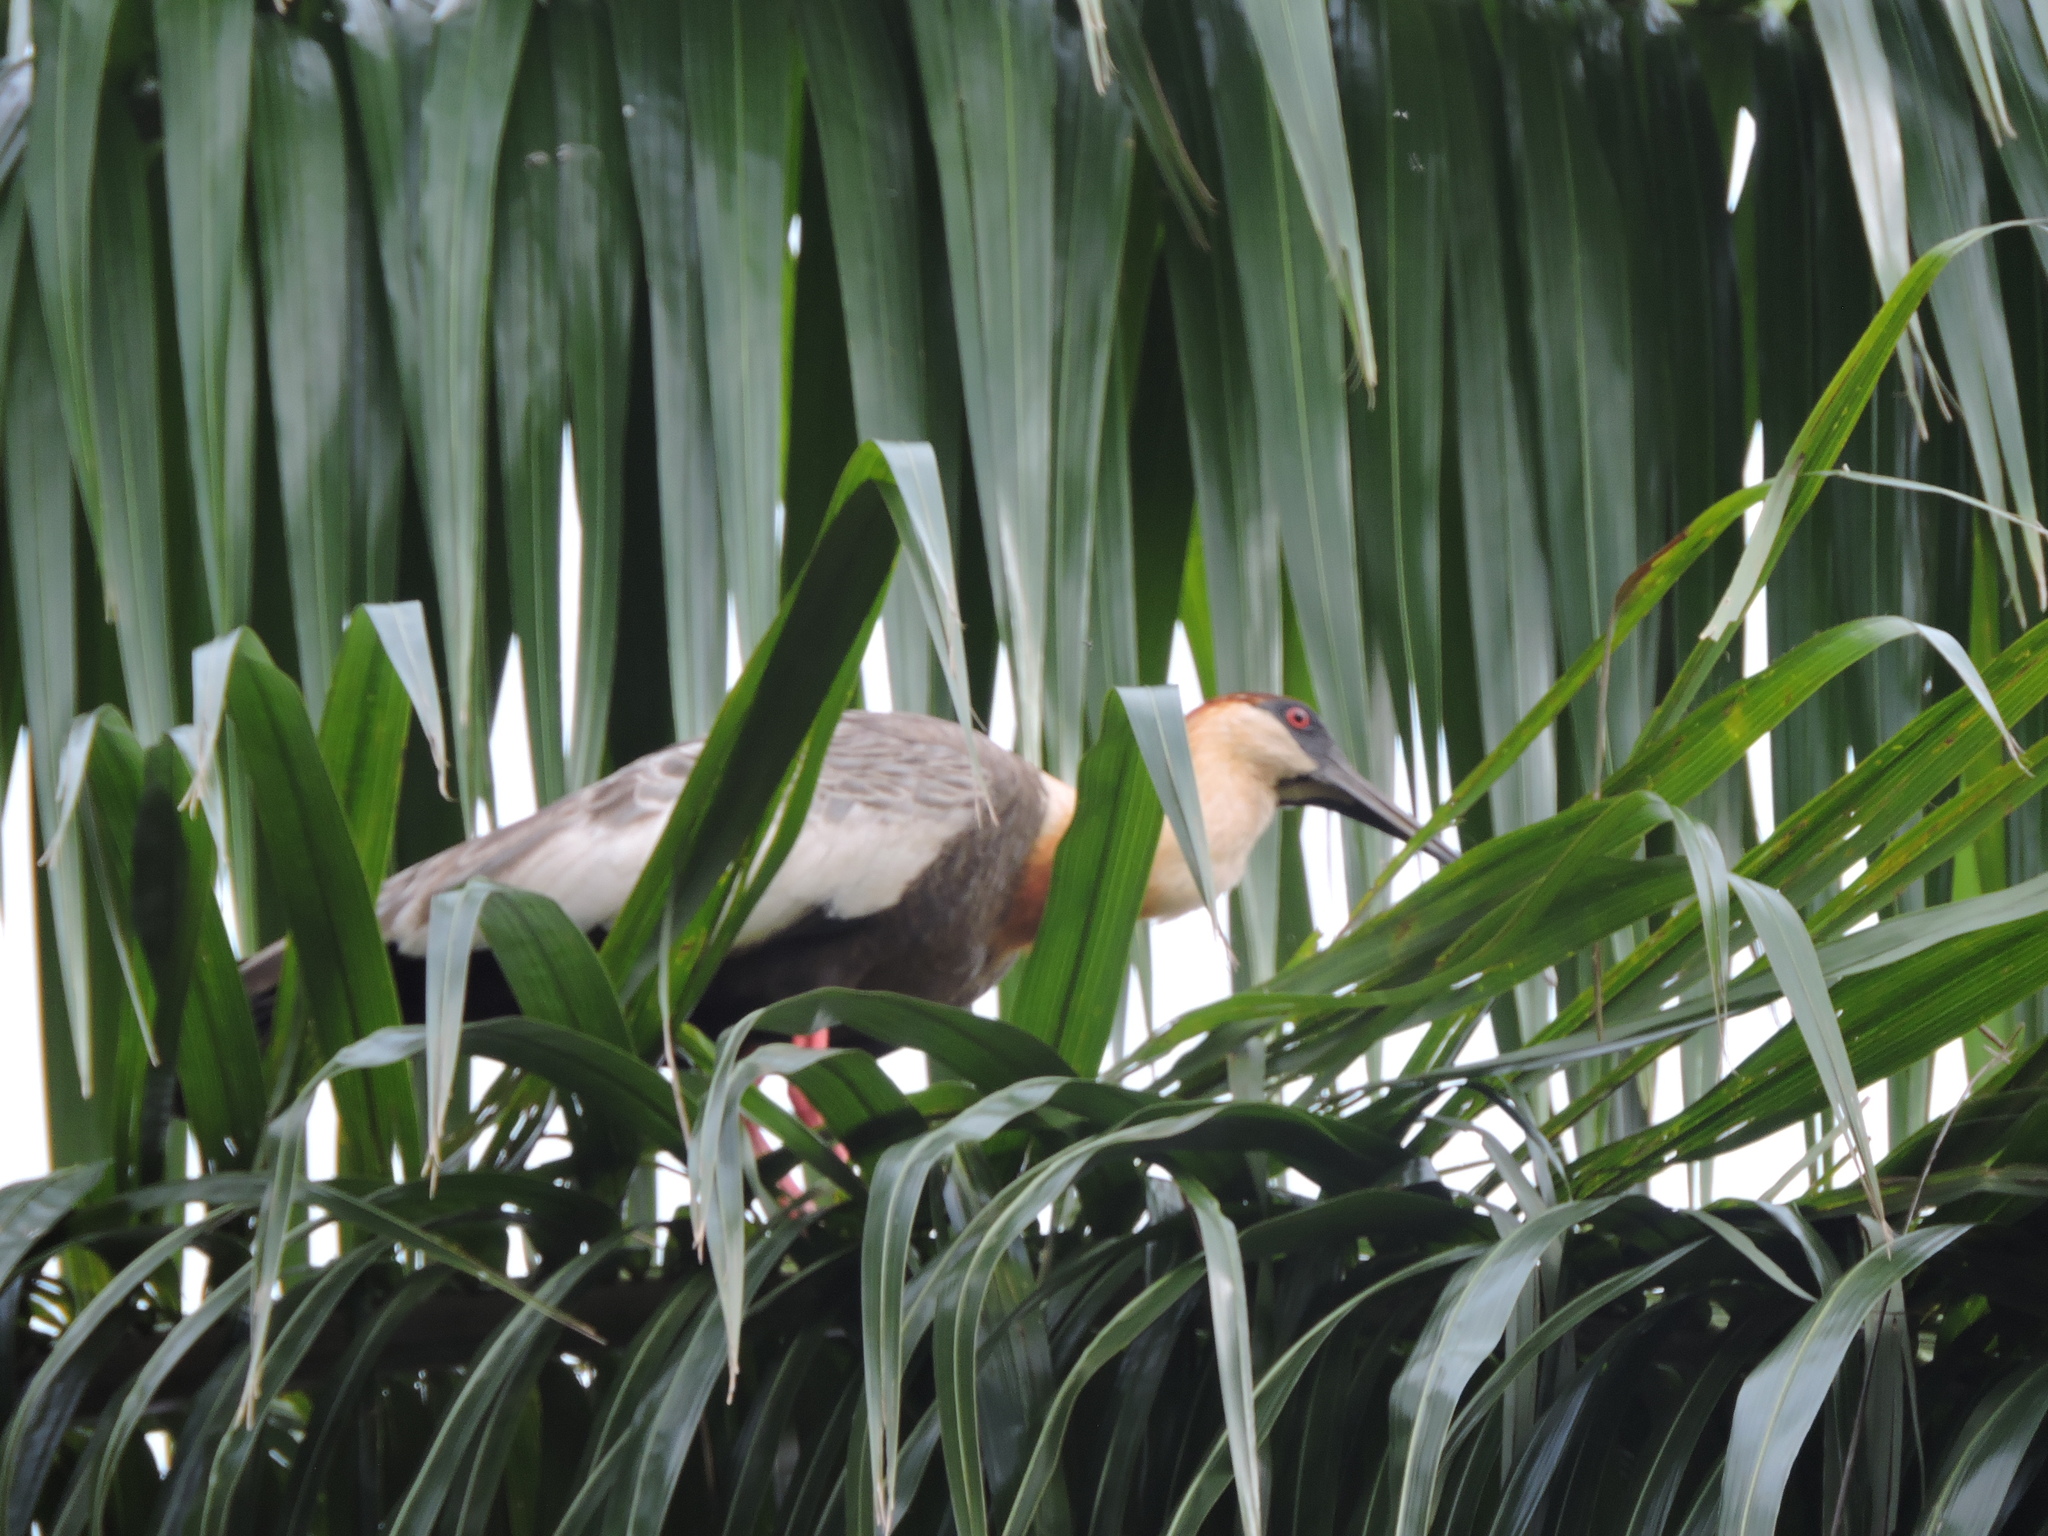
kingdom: Animalia
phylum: Chordata
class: Aves
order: Pelecaniformes
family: Threskiornithidae
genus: Theristicus
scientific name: Theristicus caudatus
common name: Buff-necked ibis
